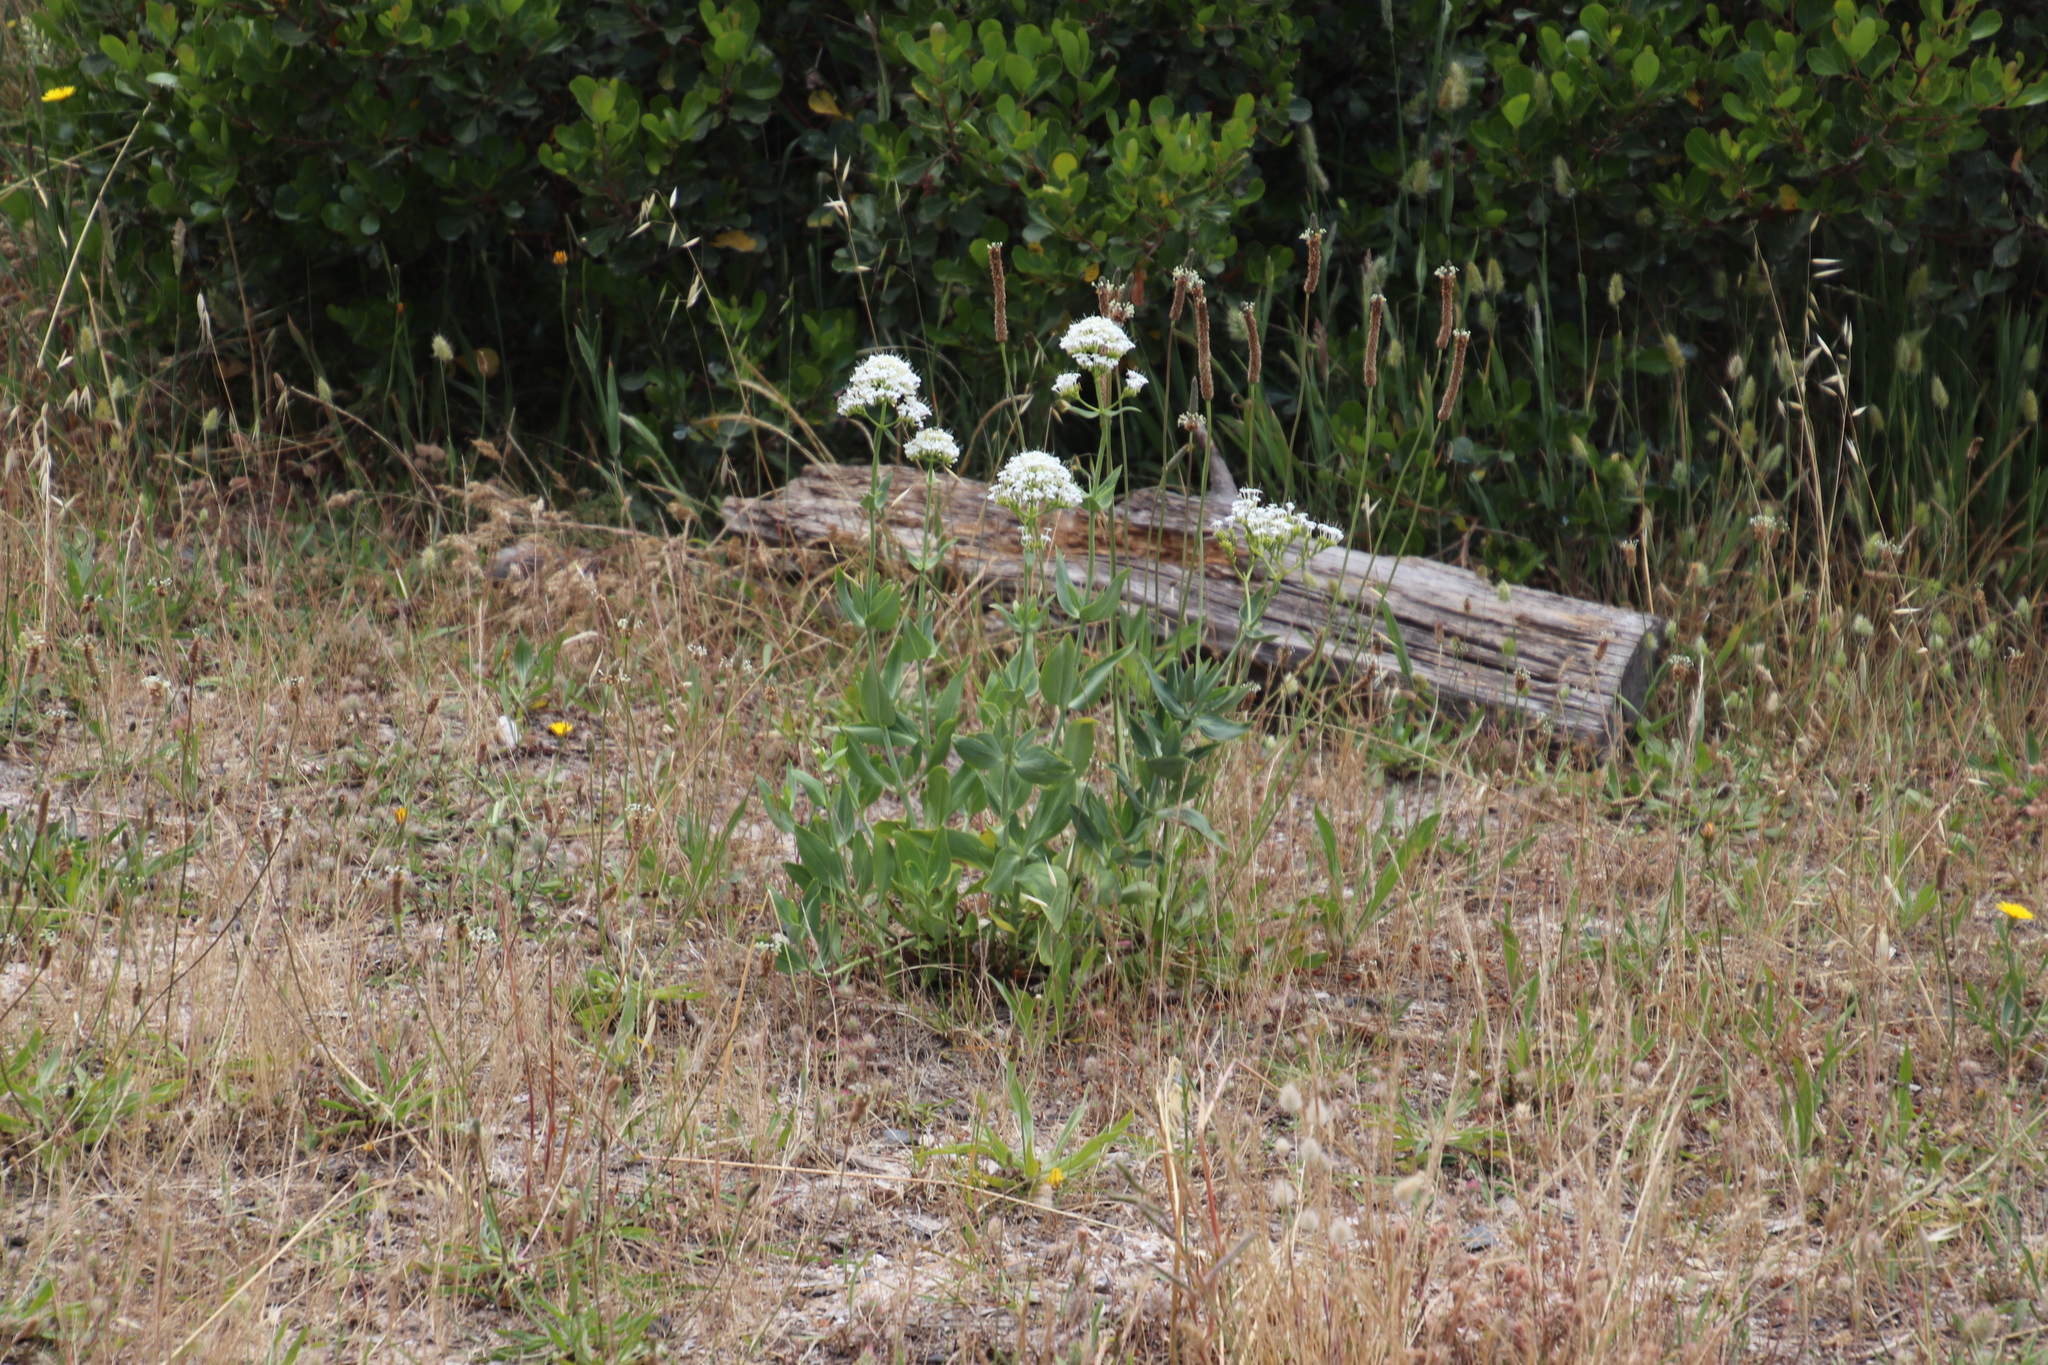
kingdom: Plantae
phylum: Tracheophyta
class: Magnoliopsida
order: Dipsacales
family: Caprifoliaceae
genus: Centranthus
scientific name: Centranthus ruber
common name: Red valerian
